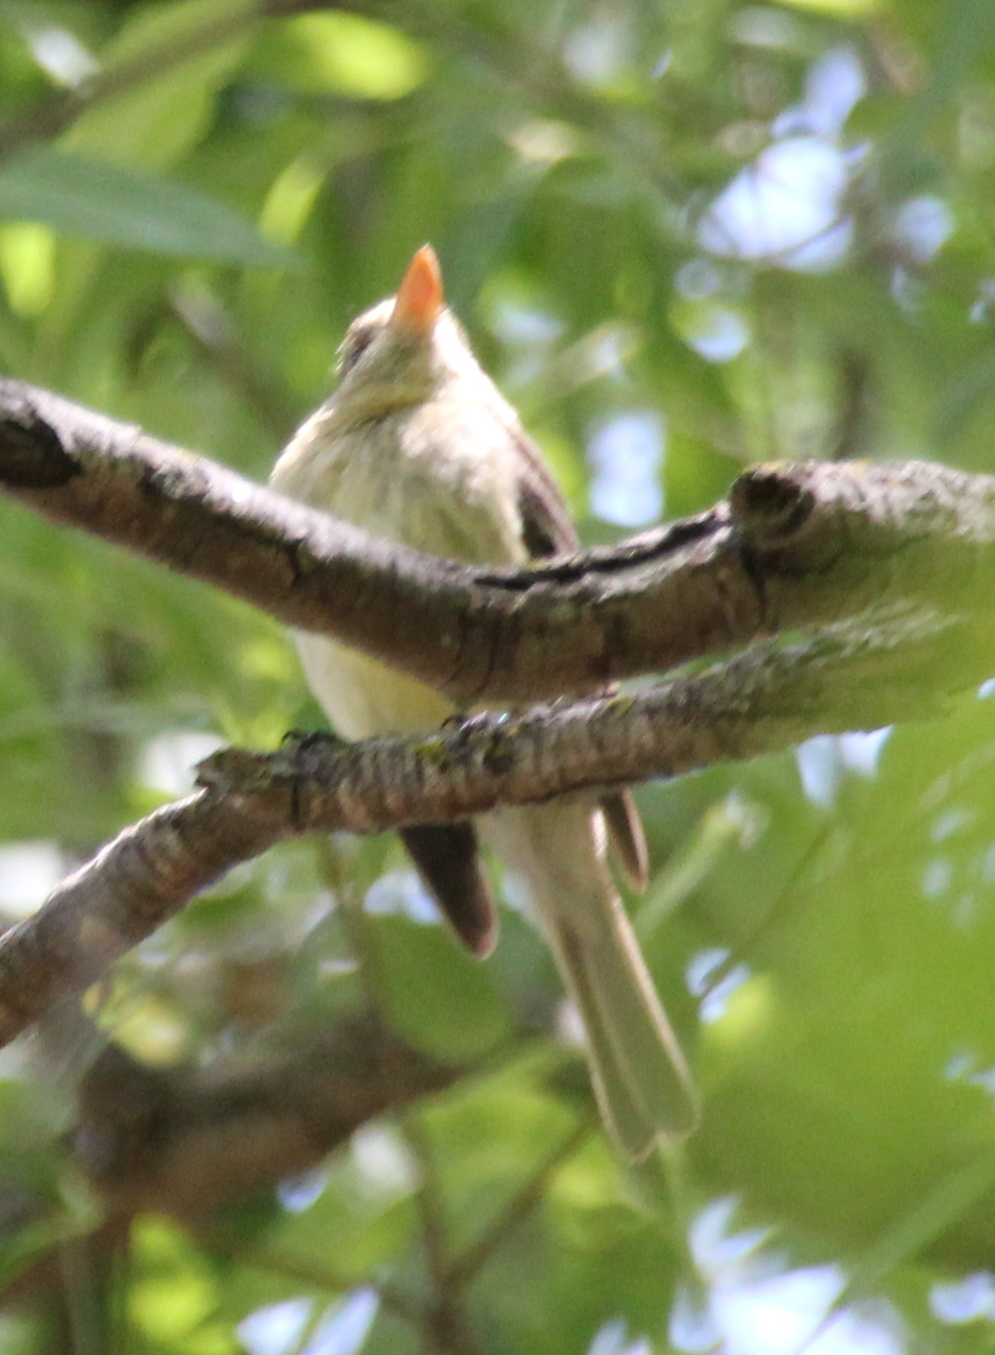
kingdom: Animalia
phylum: Chordata
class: Aves
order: Passeriformes
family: Tyrannidae
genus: Empidonax
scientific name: Empidonax difficilis
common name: Pacific-slope flycatcher
